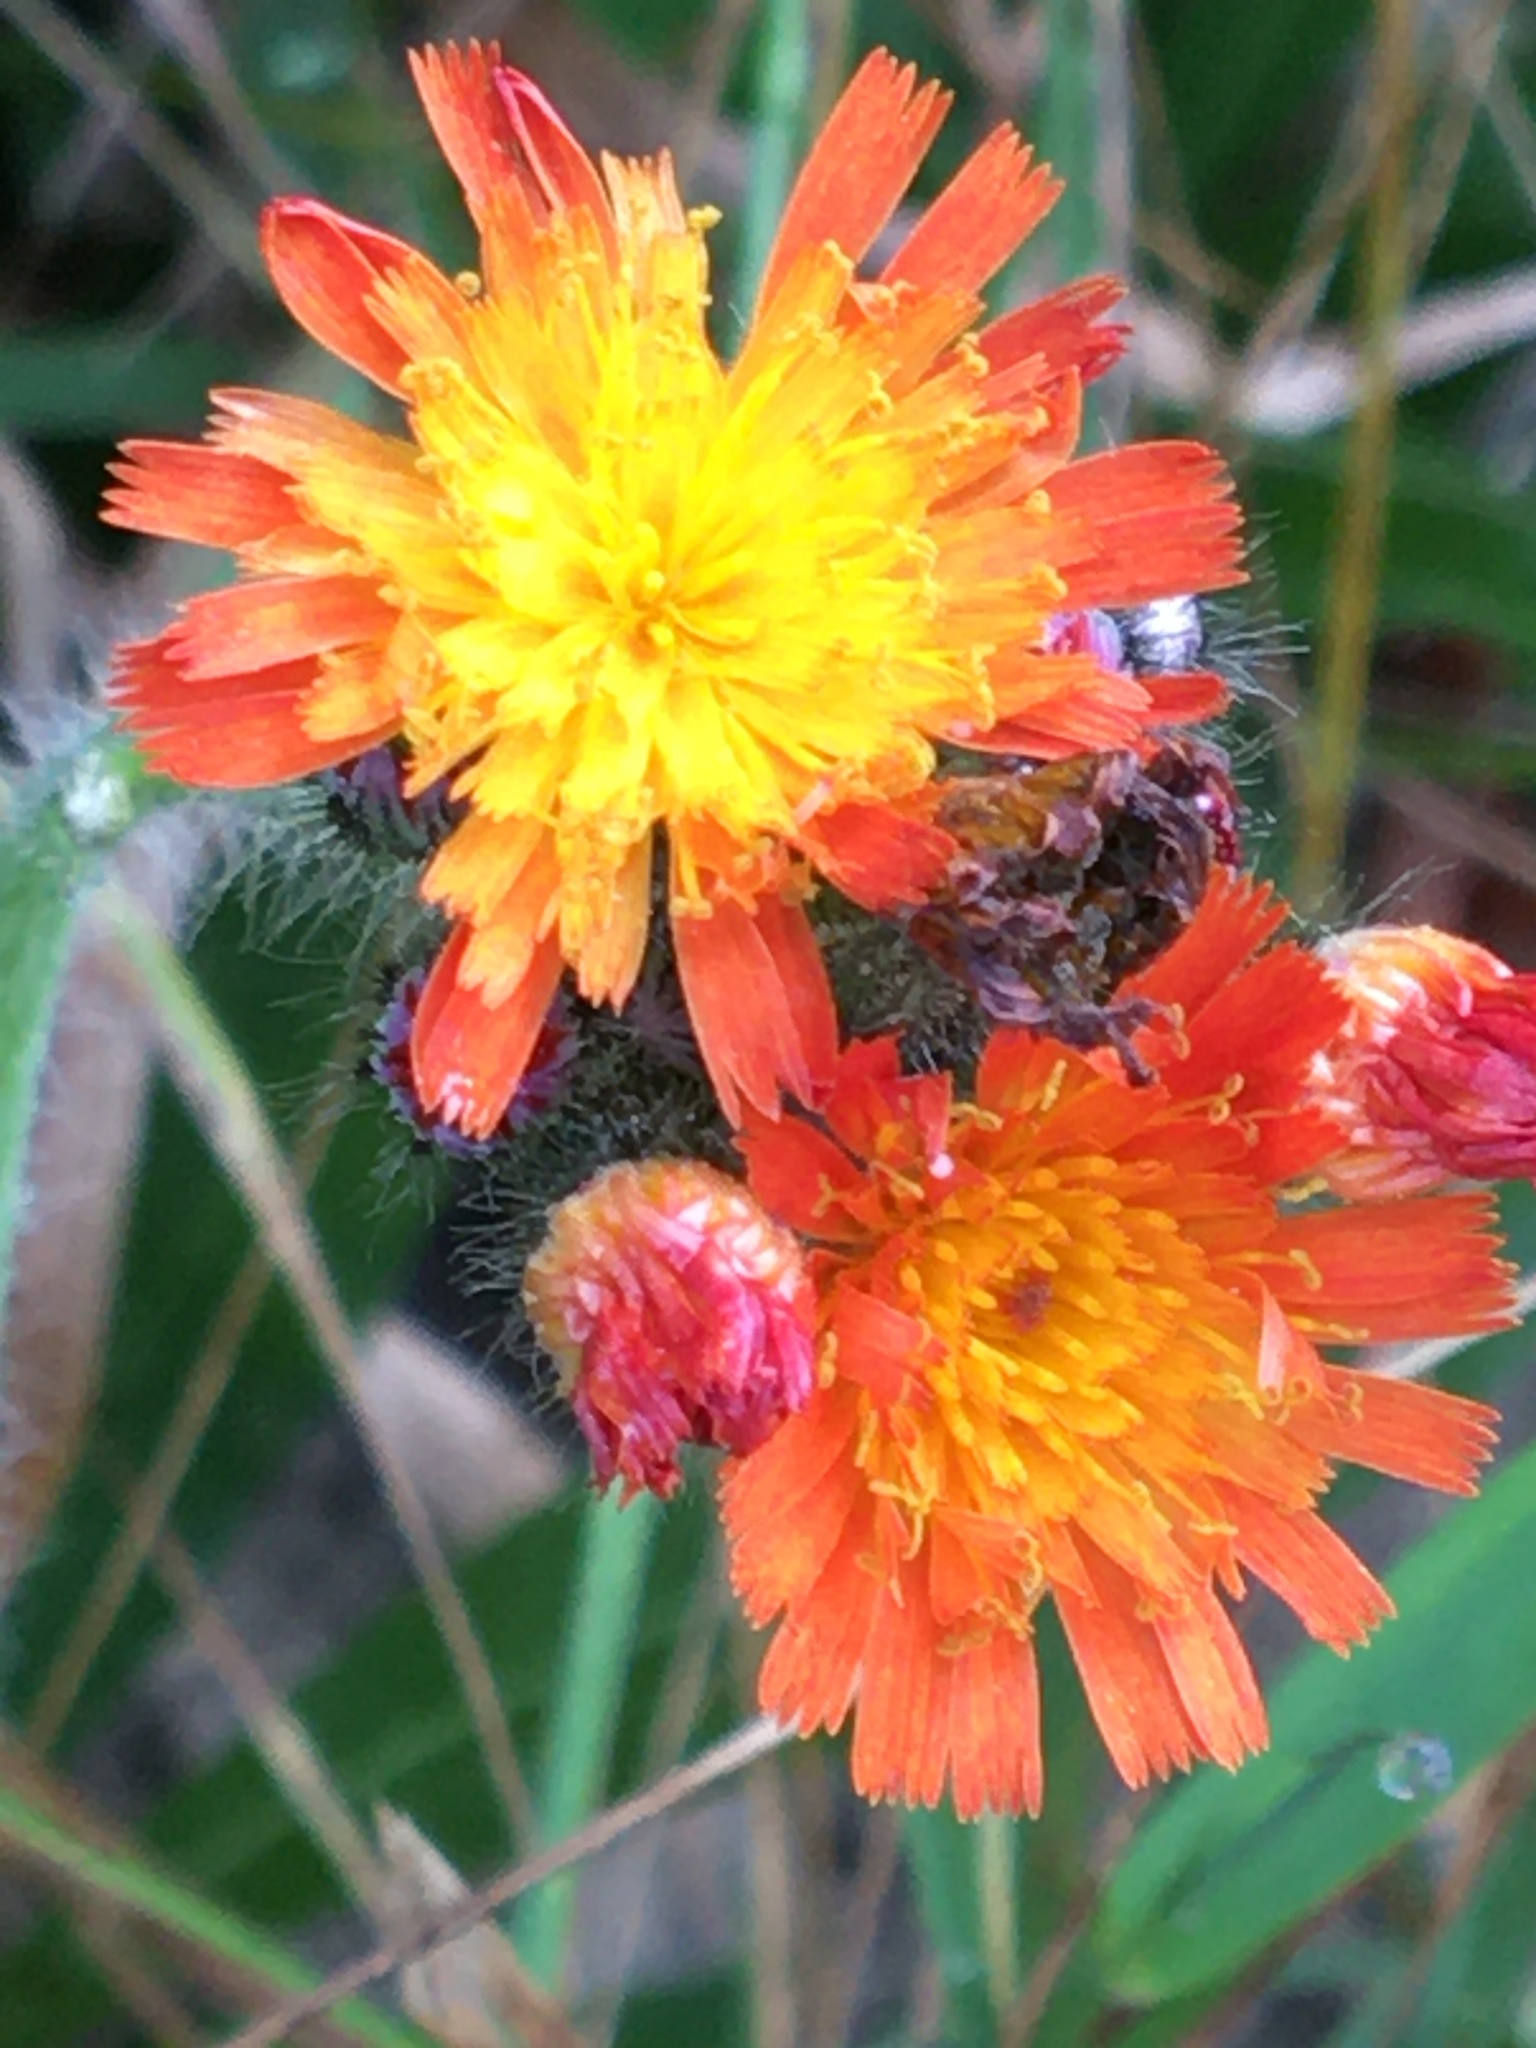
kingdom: Plantae
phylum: Tracheophyta
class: Magnoliopsida
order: Asterales
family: Asteraceae
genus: Pilosella
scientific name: Pilosella aurantiaca
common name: Fox-and-cubs
